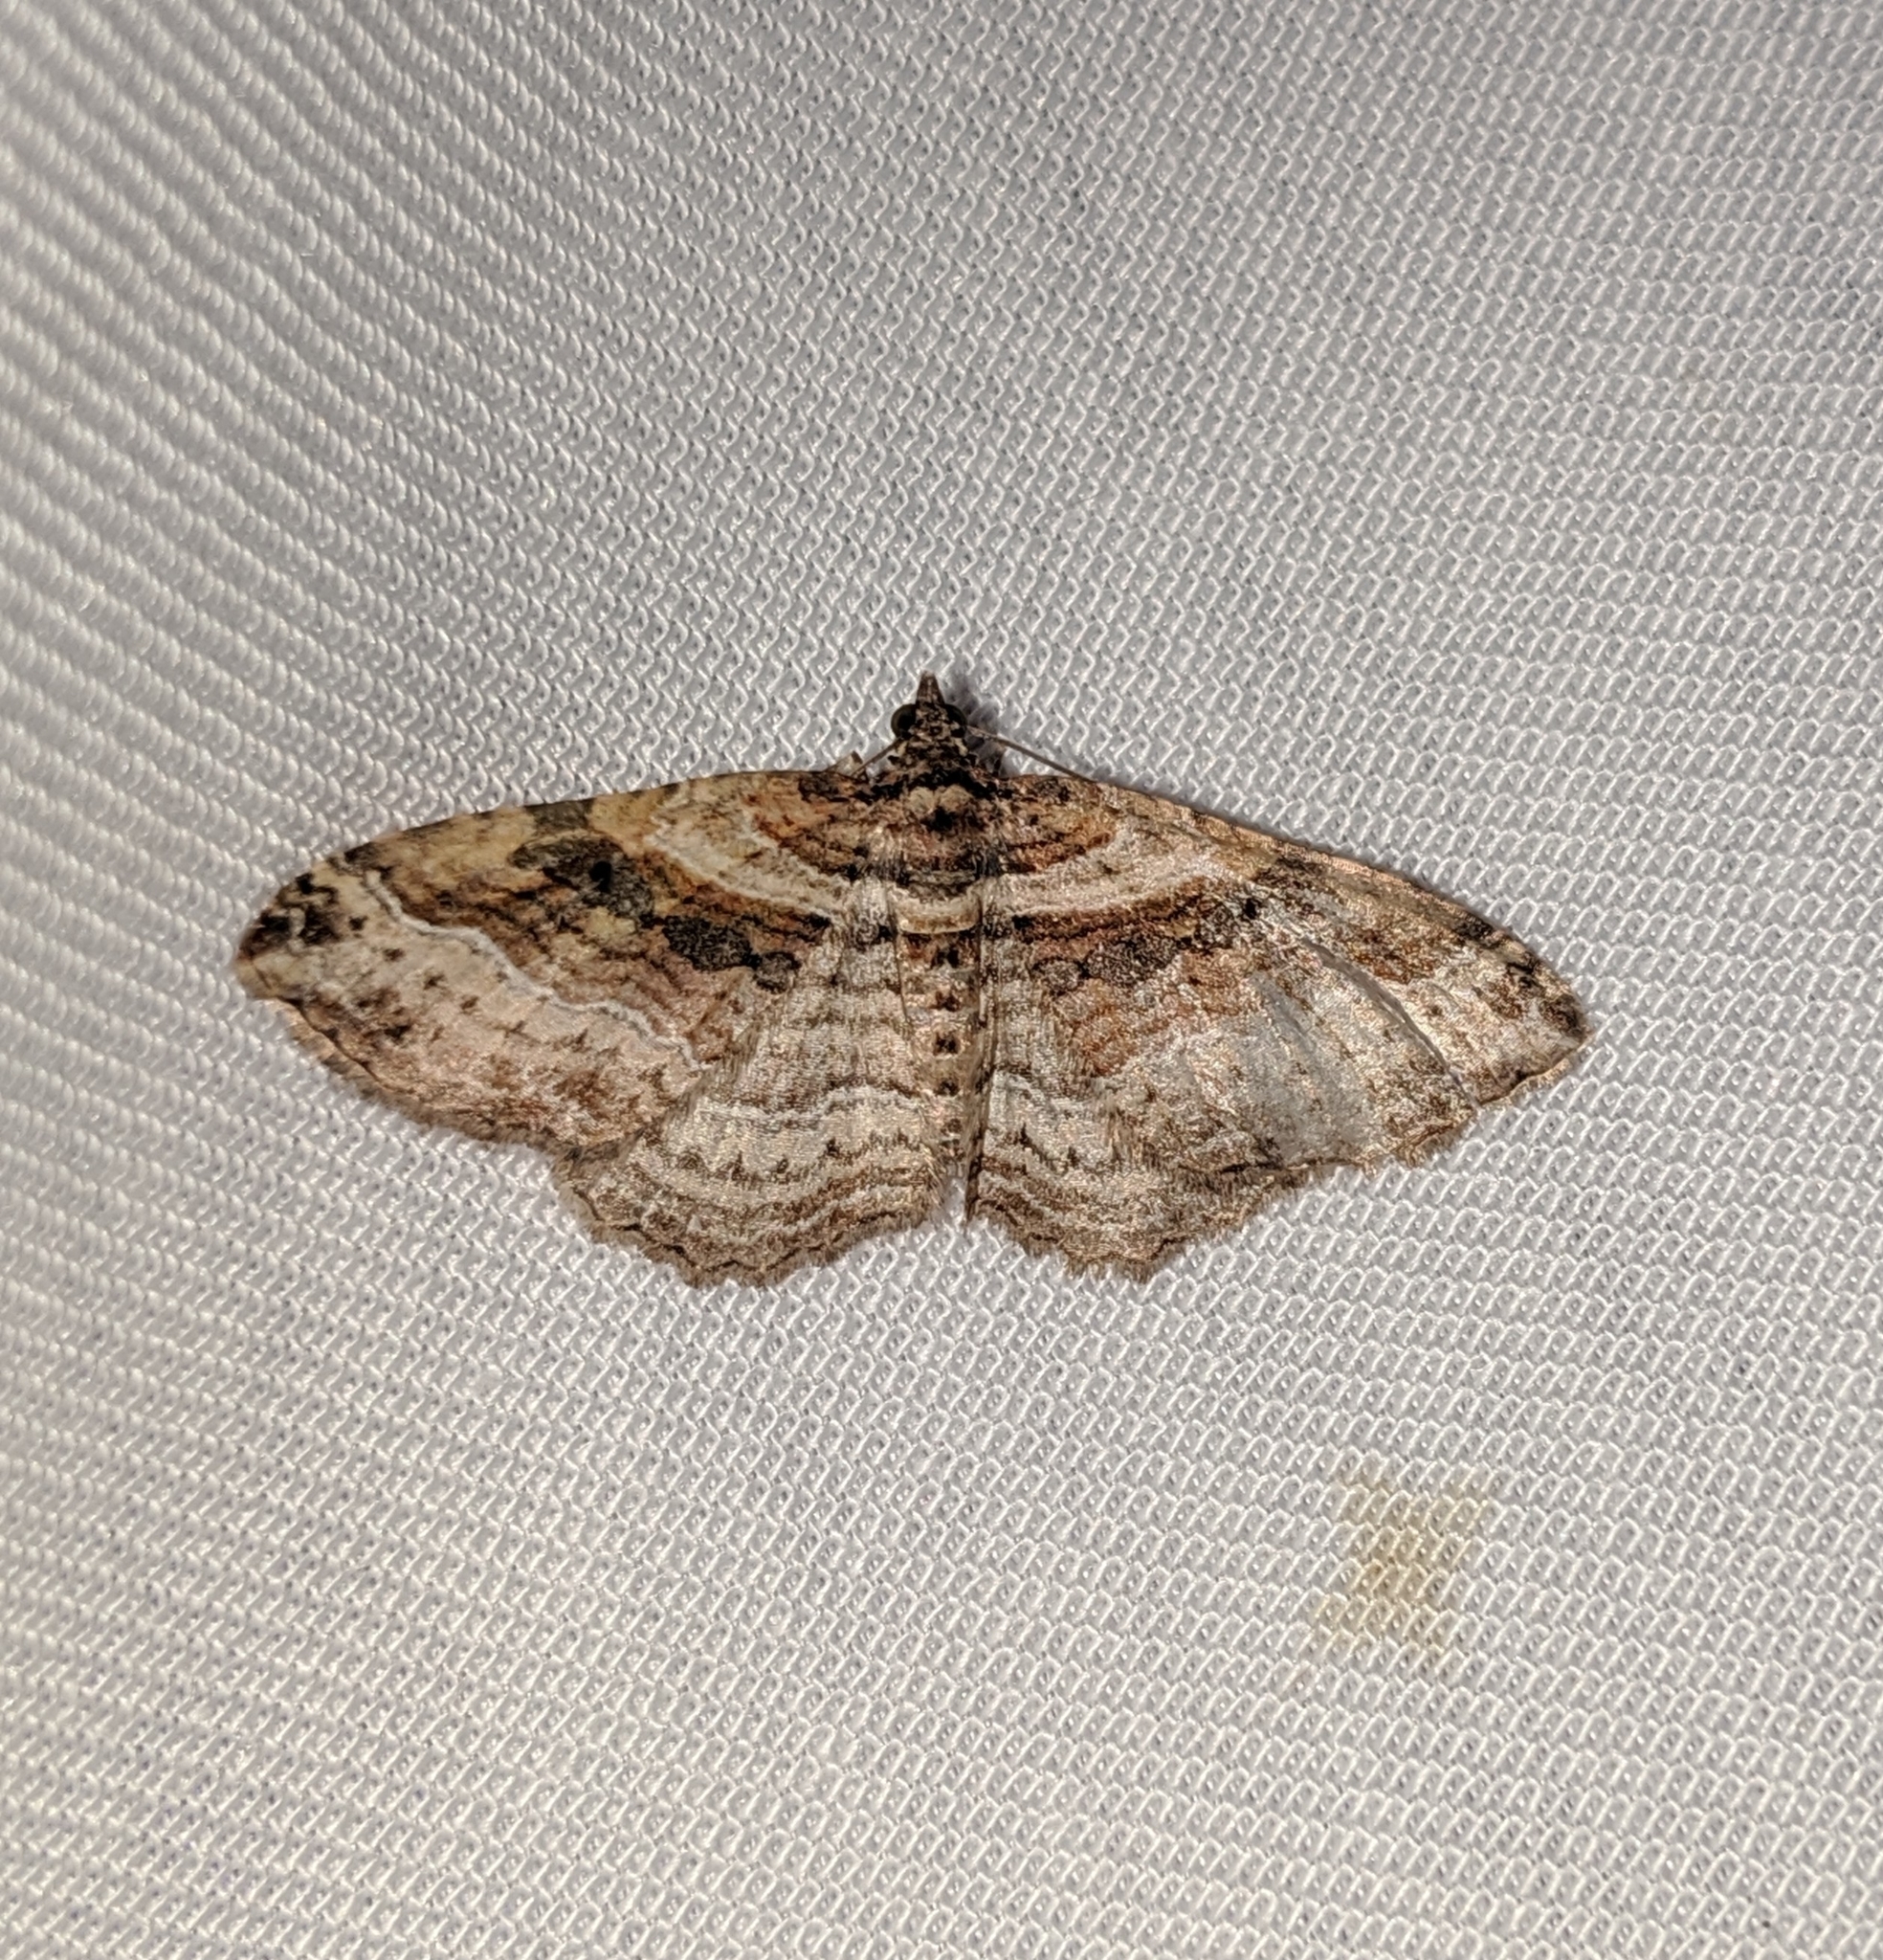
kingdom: Animalia
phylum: Arthropoda
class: Insecta
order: Lepidoptera
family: Geometridae
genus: Costaconvexa
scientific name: Costaconvexa centrostrigaria
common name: Bent-line carpet
